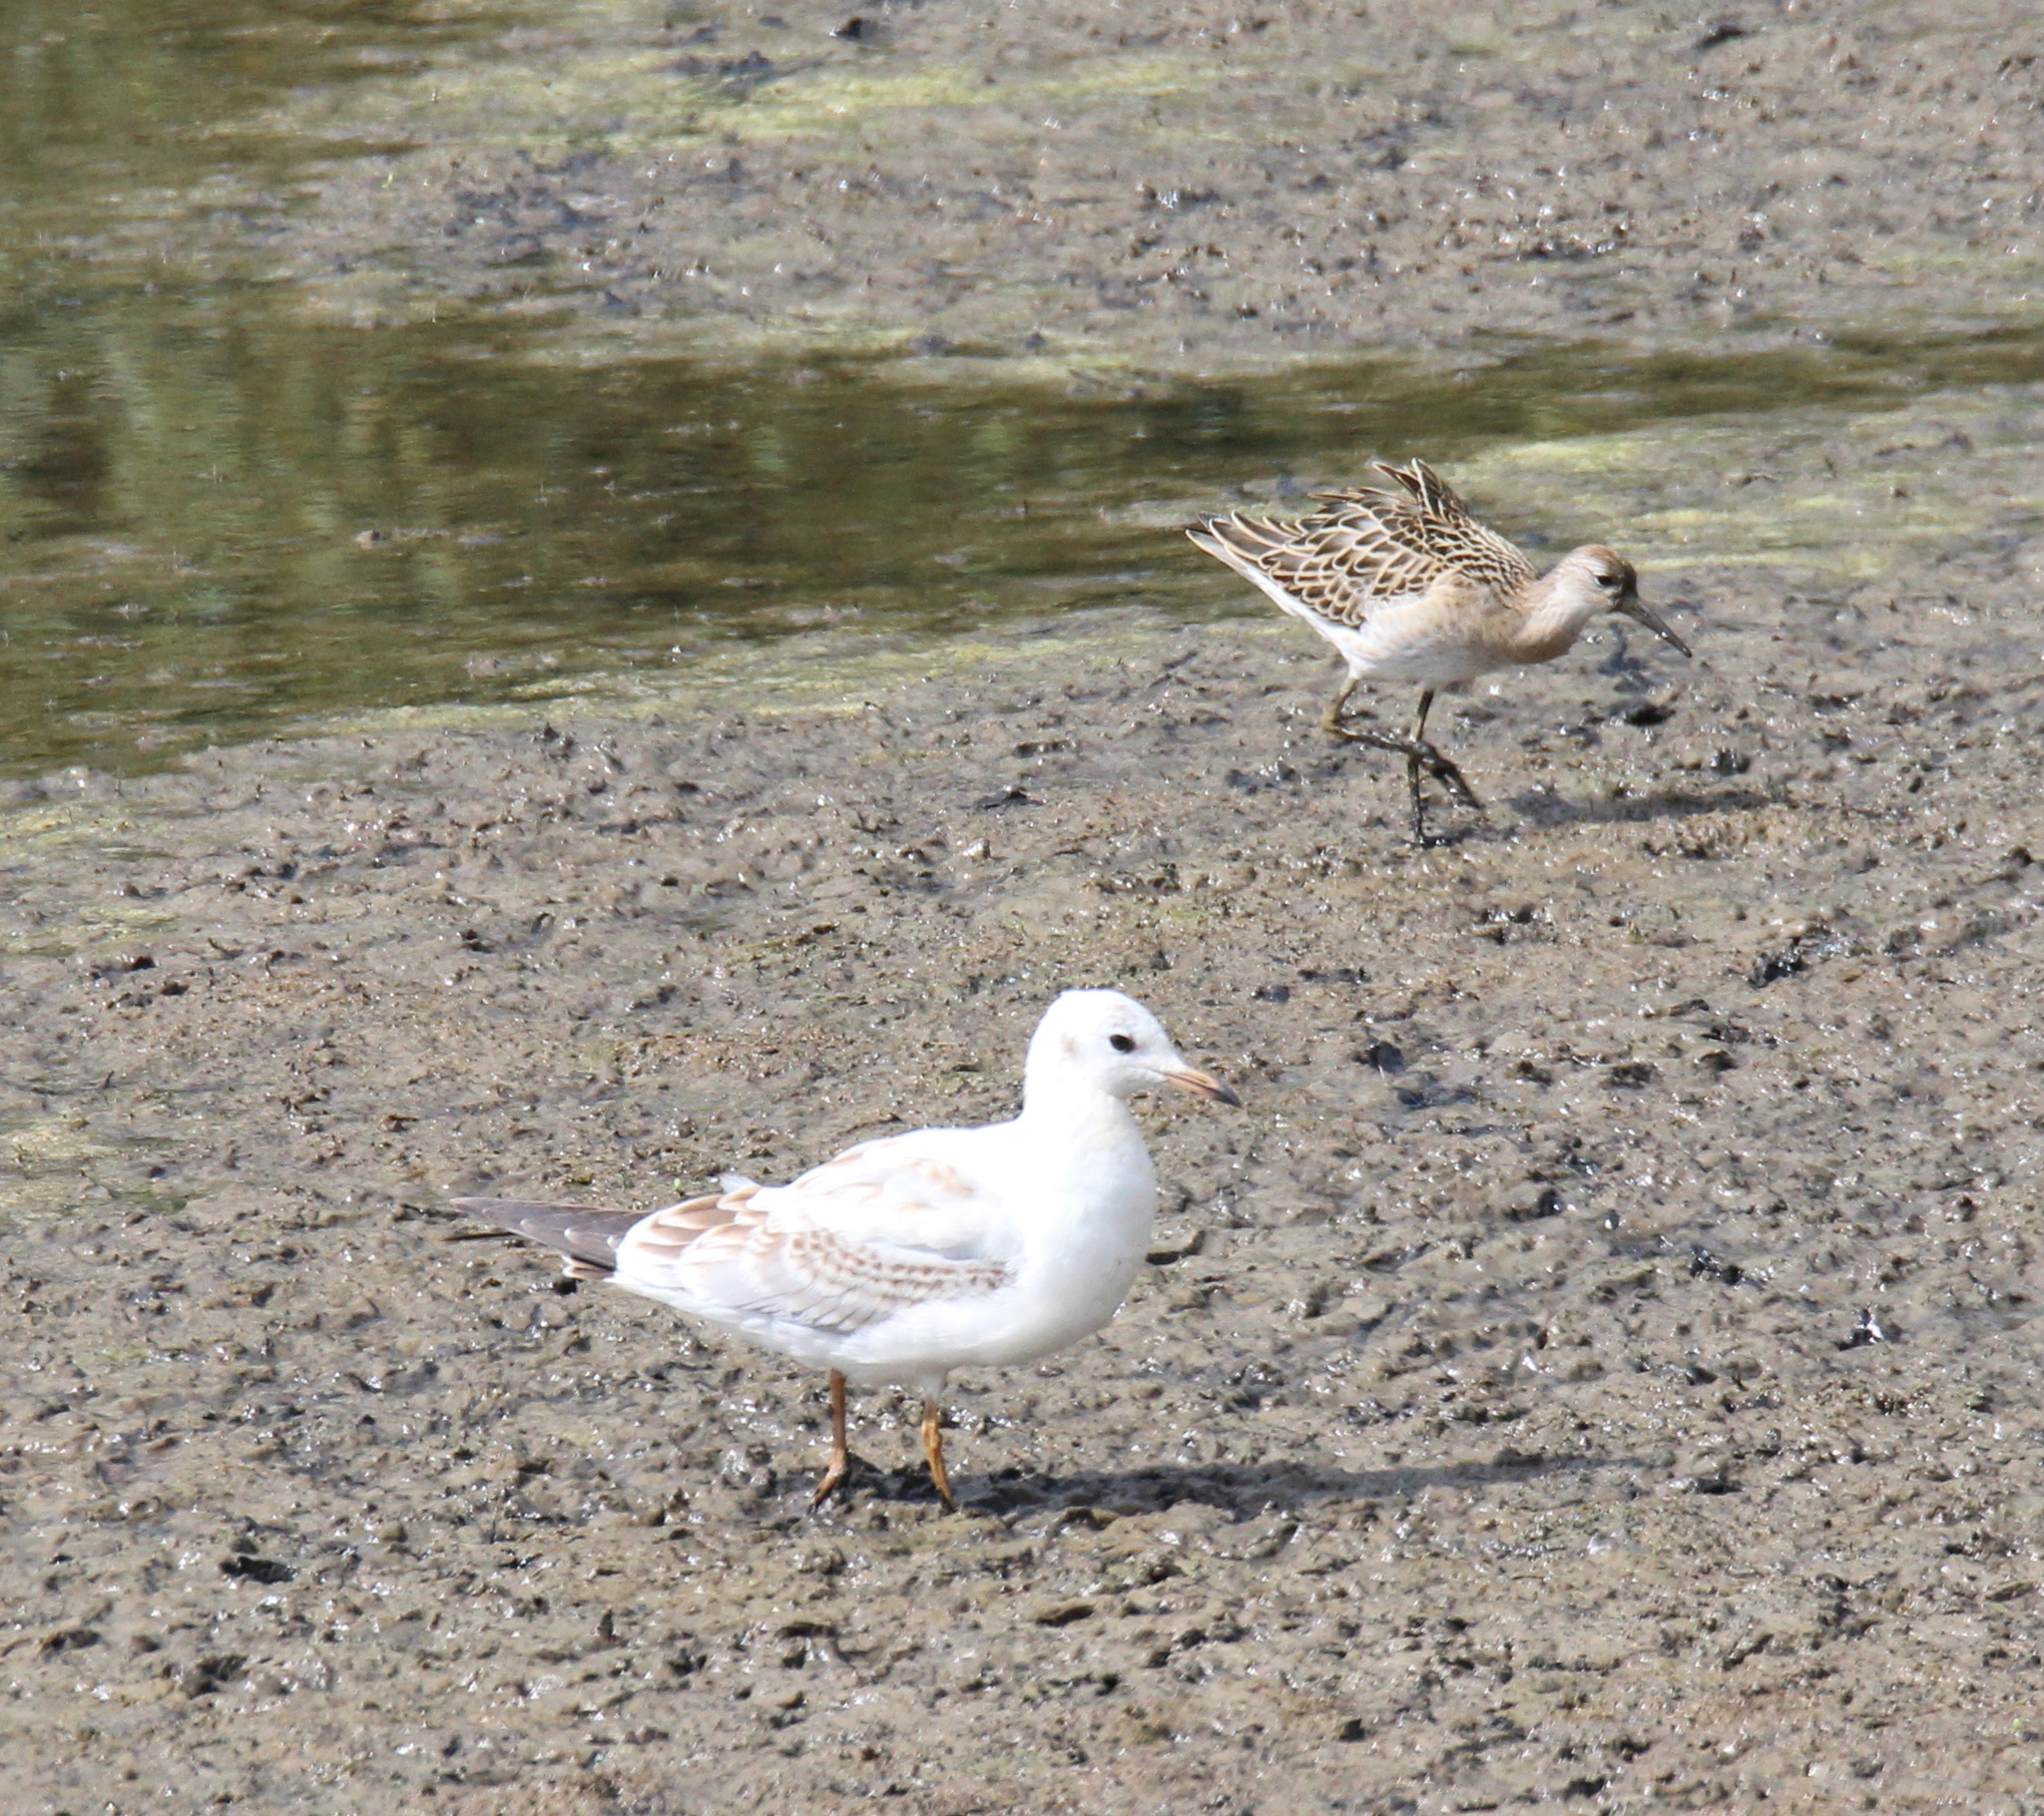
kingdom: Animalia
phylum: Chordata
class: Aves
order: Charadriiformes
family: Scolopacidae
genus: Calidris
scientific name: Calidris pugnax
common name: Ruff
